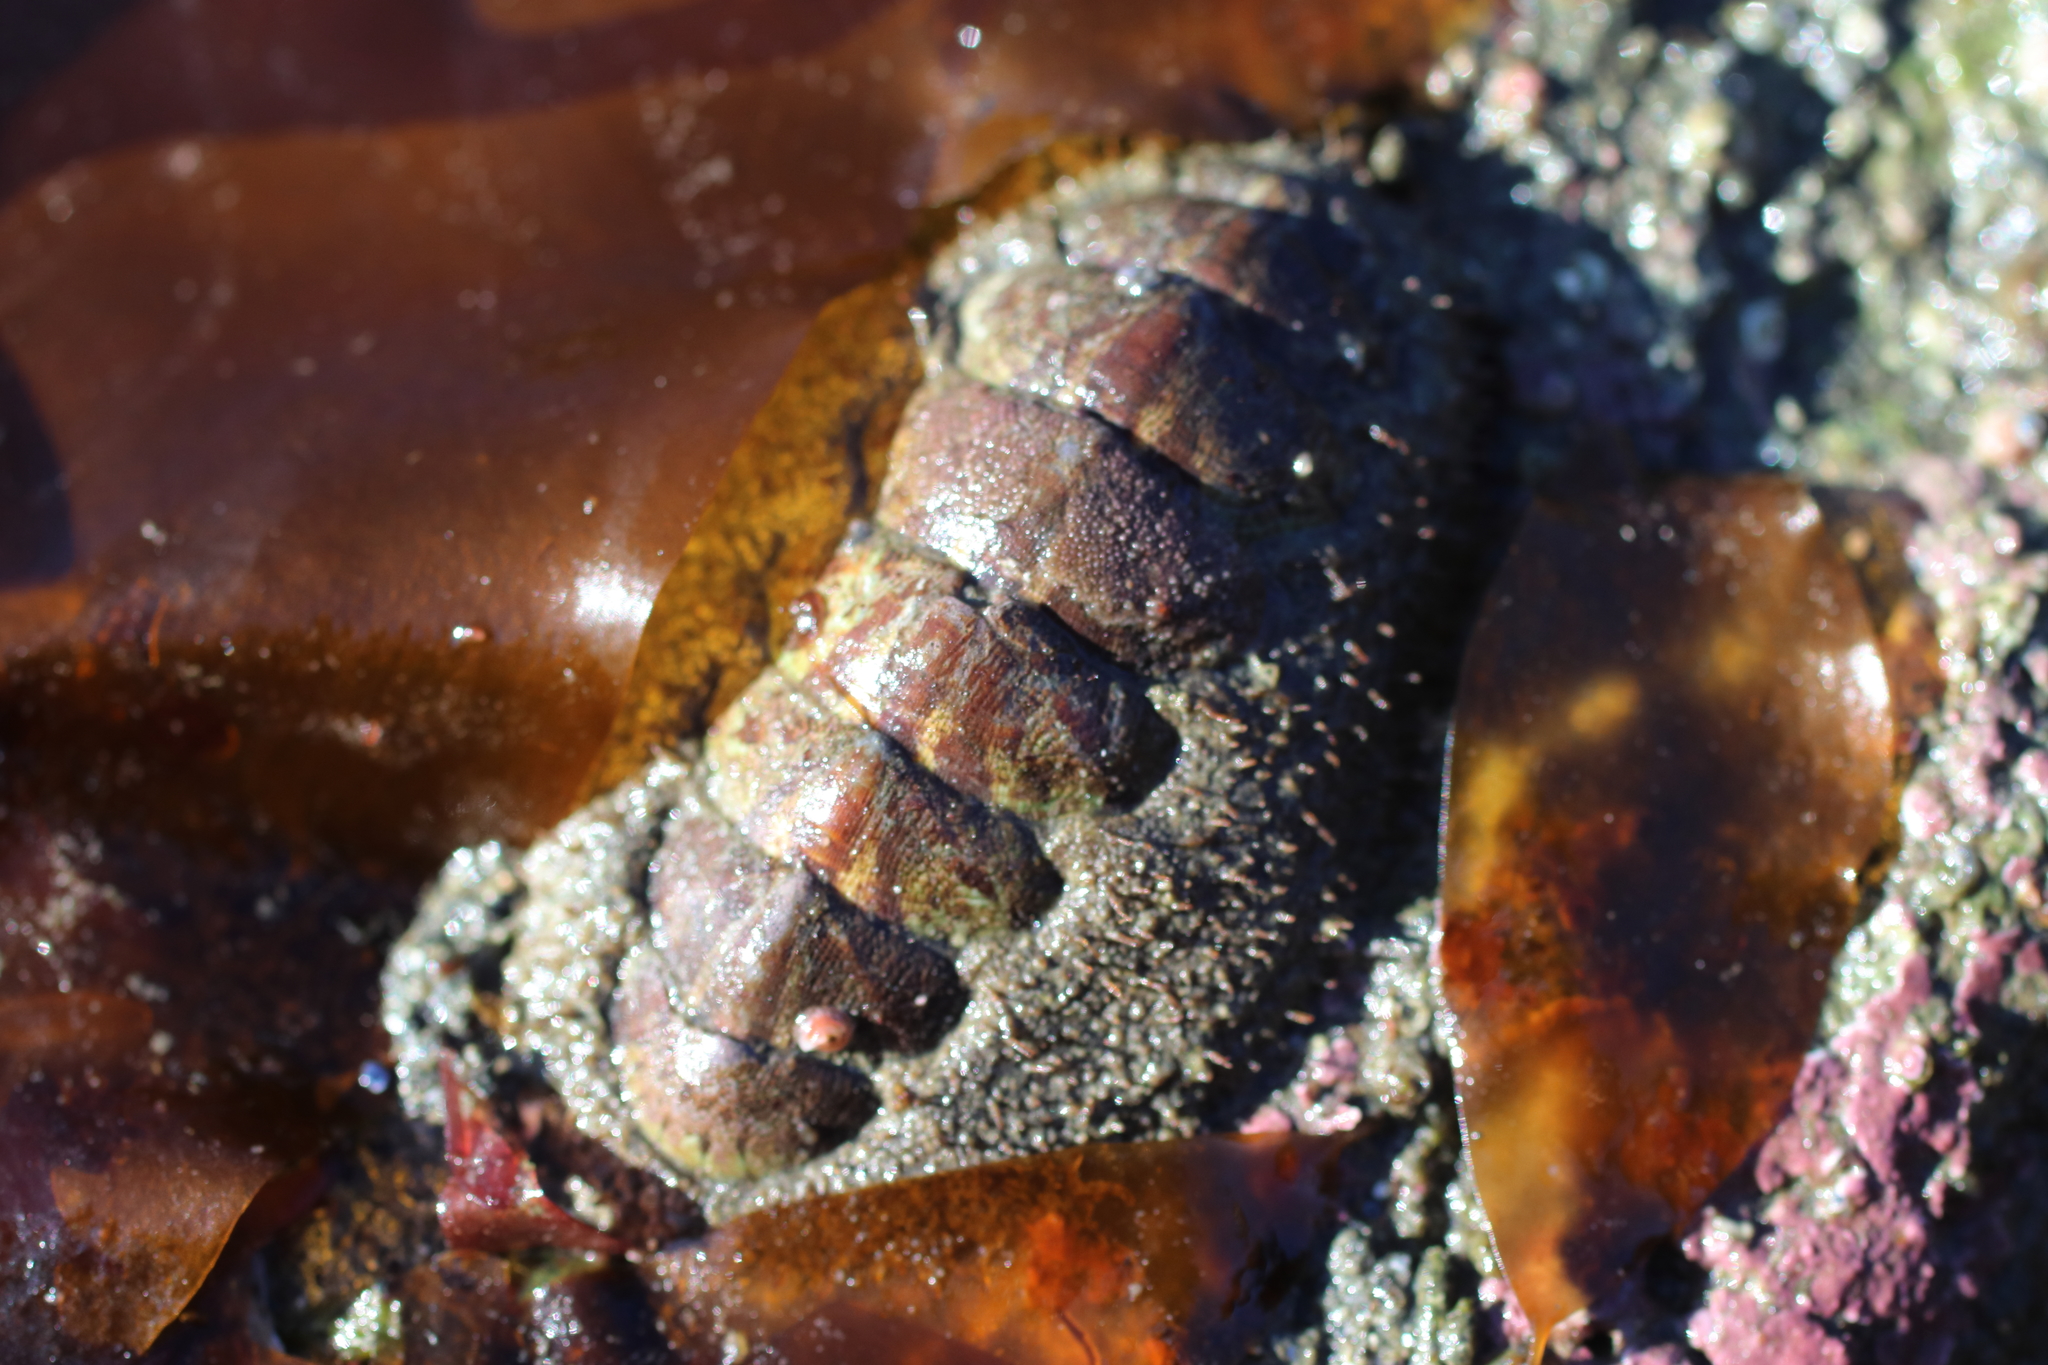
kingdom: Animalia
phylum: Mollusca
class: Polyplacophora
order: Chitonida
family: Mopaliidae
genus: Mopalia
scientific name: Mopalia ciliata
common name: Hairy chiton
